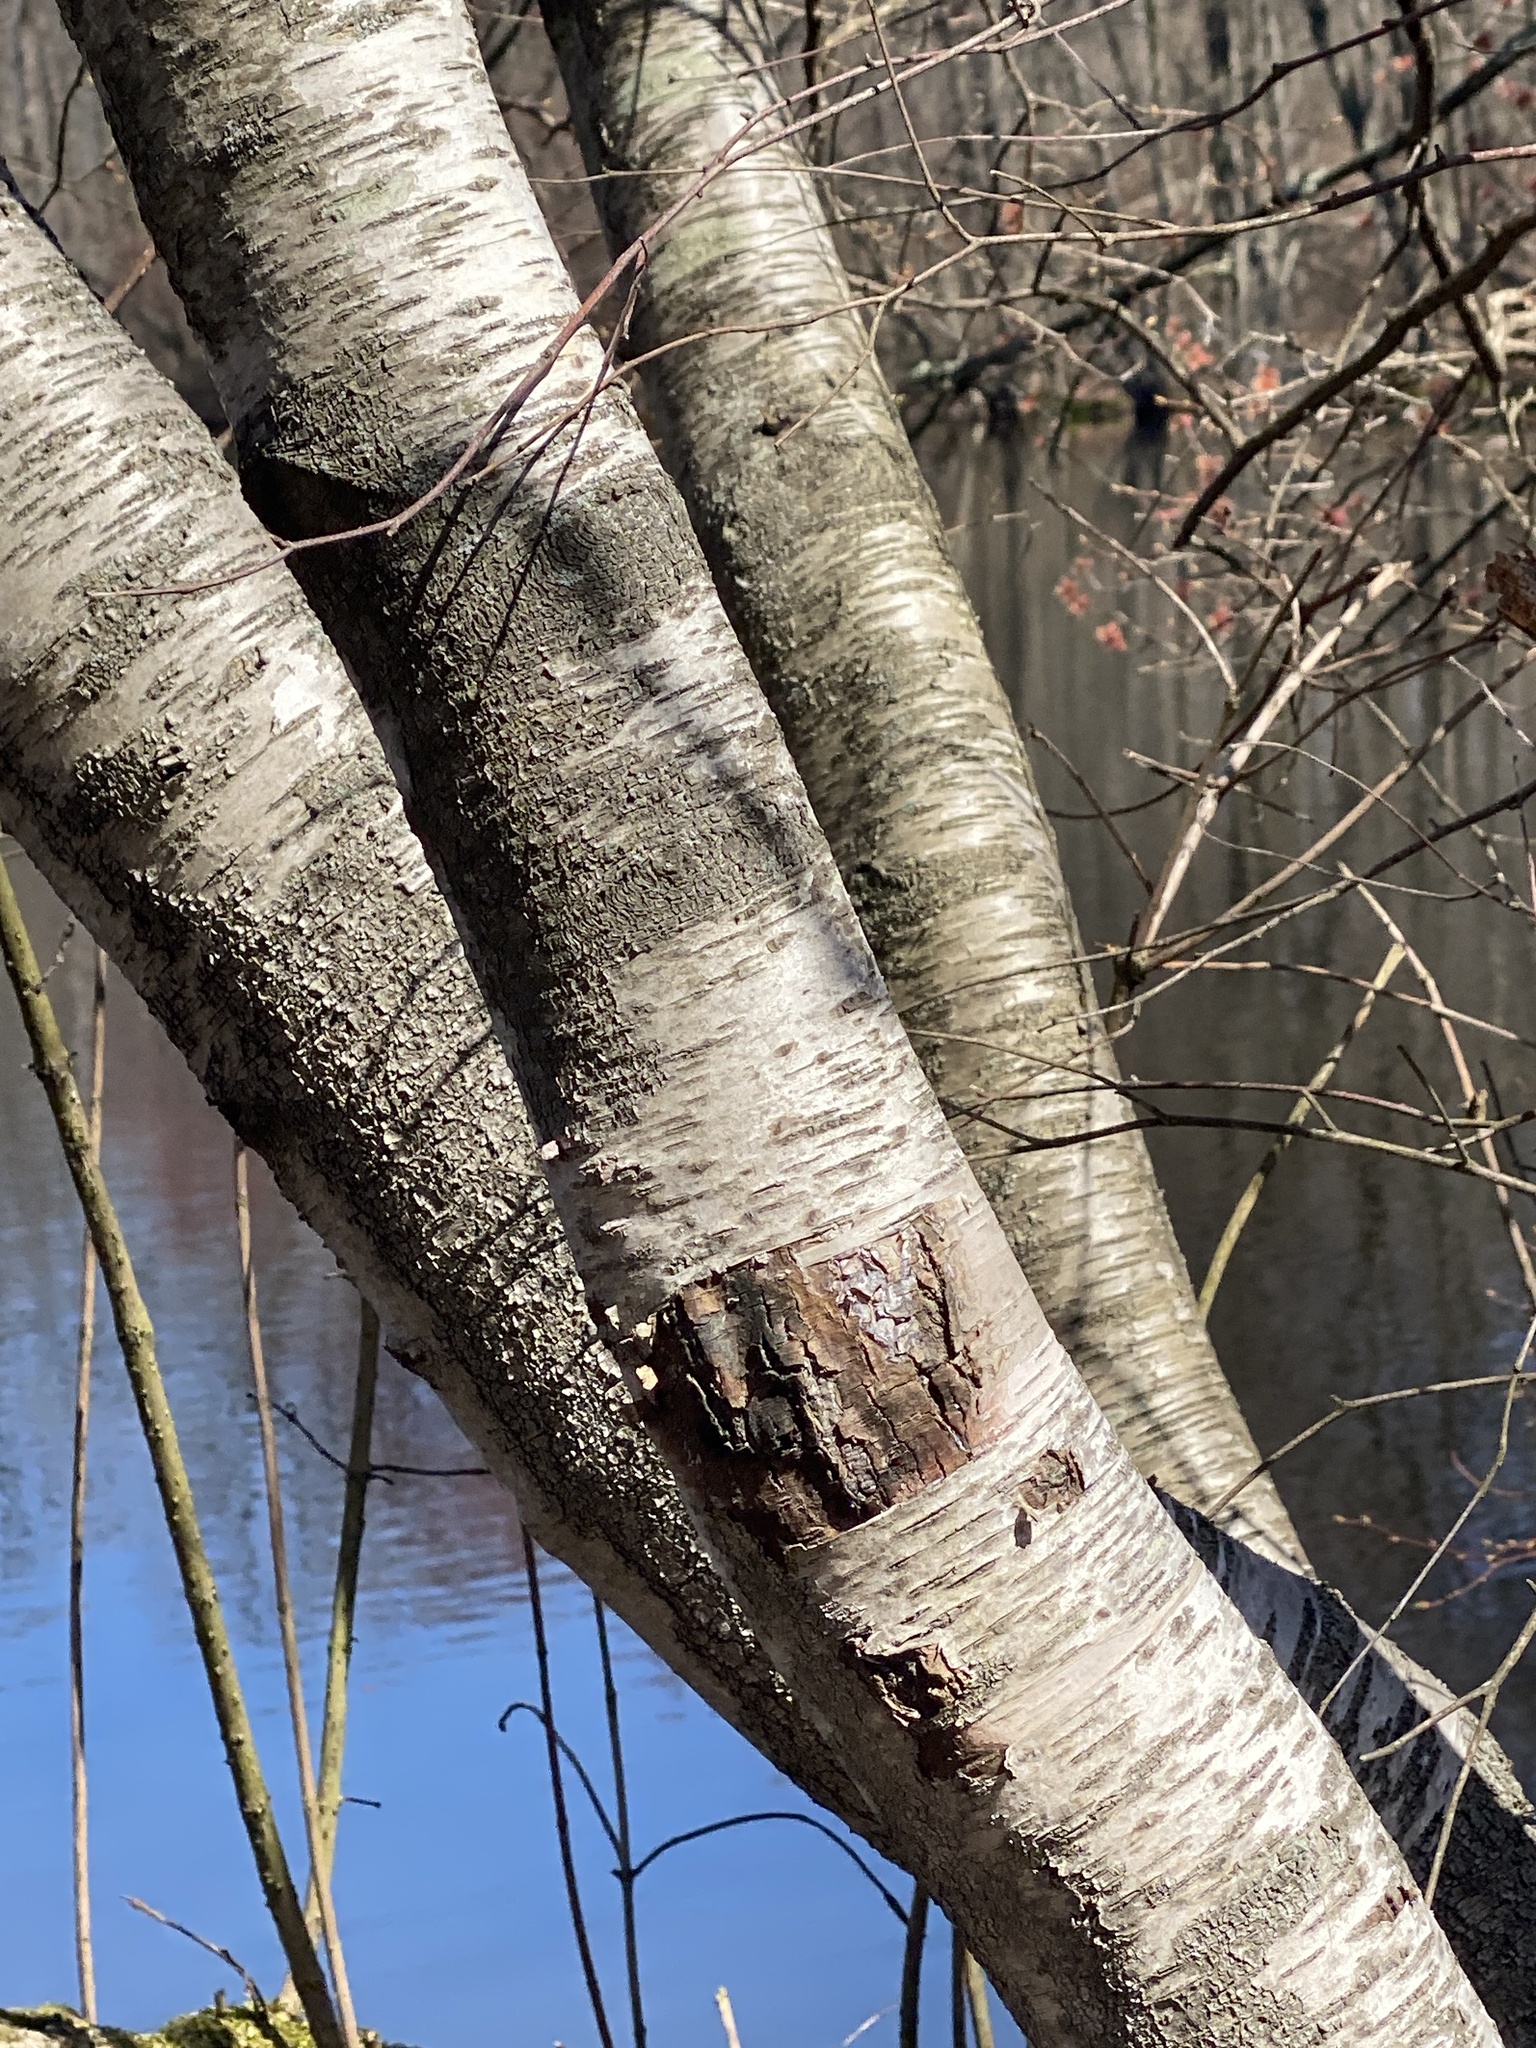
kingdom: Plantae
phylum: Tracheophyta
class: Magnoliopsida
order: Fagales
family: Betulaceae
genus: Betula
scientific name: Betula populifolia
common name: Fire birch
